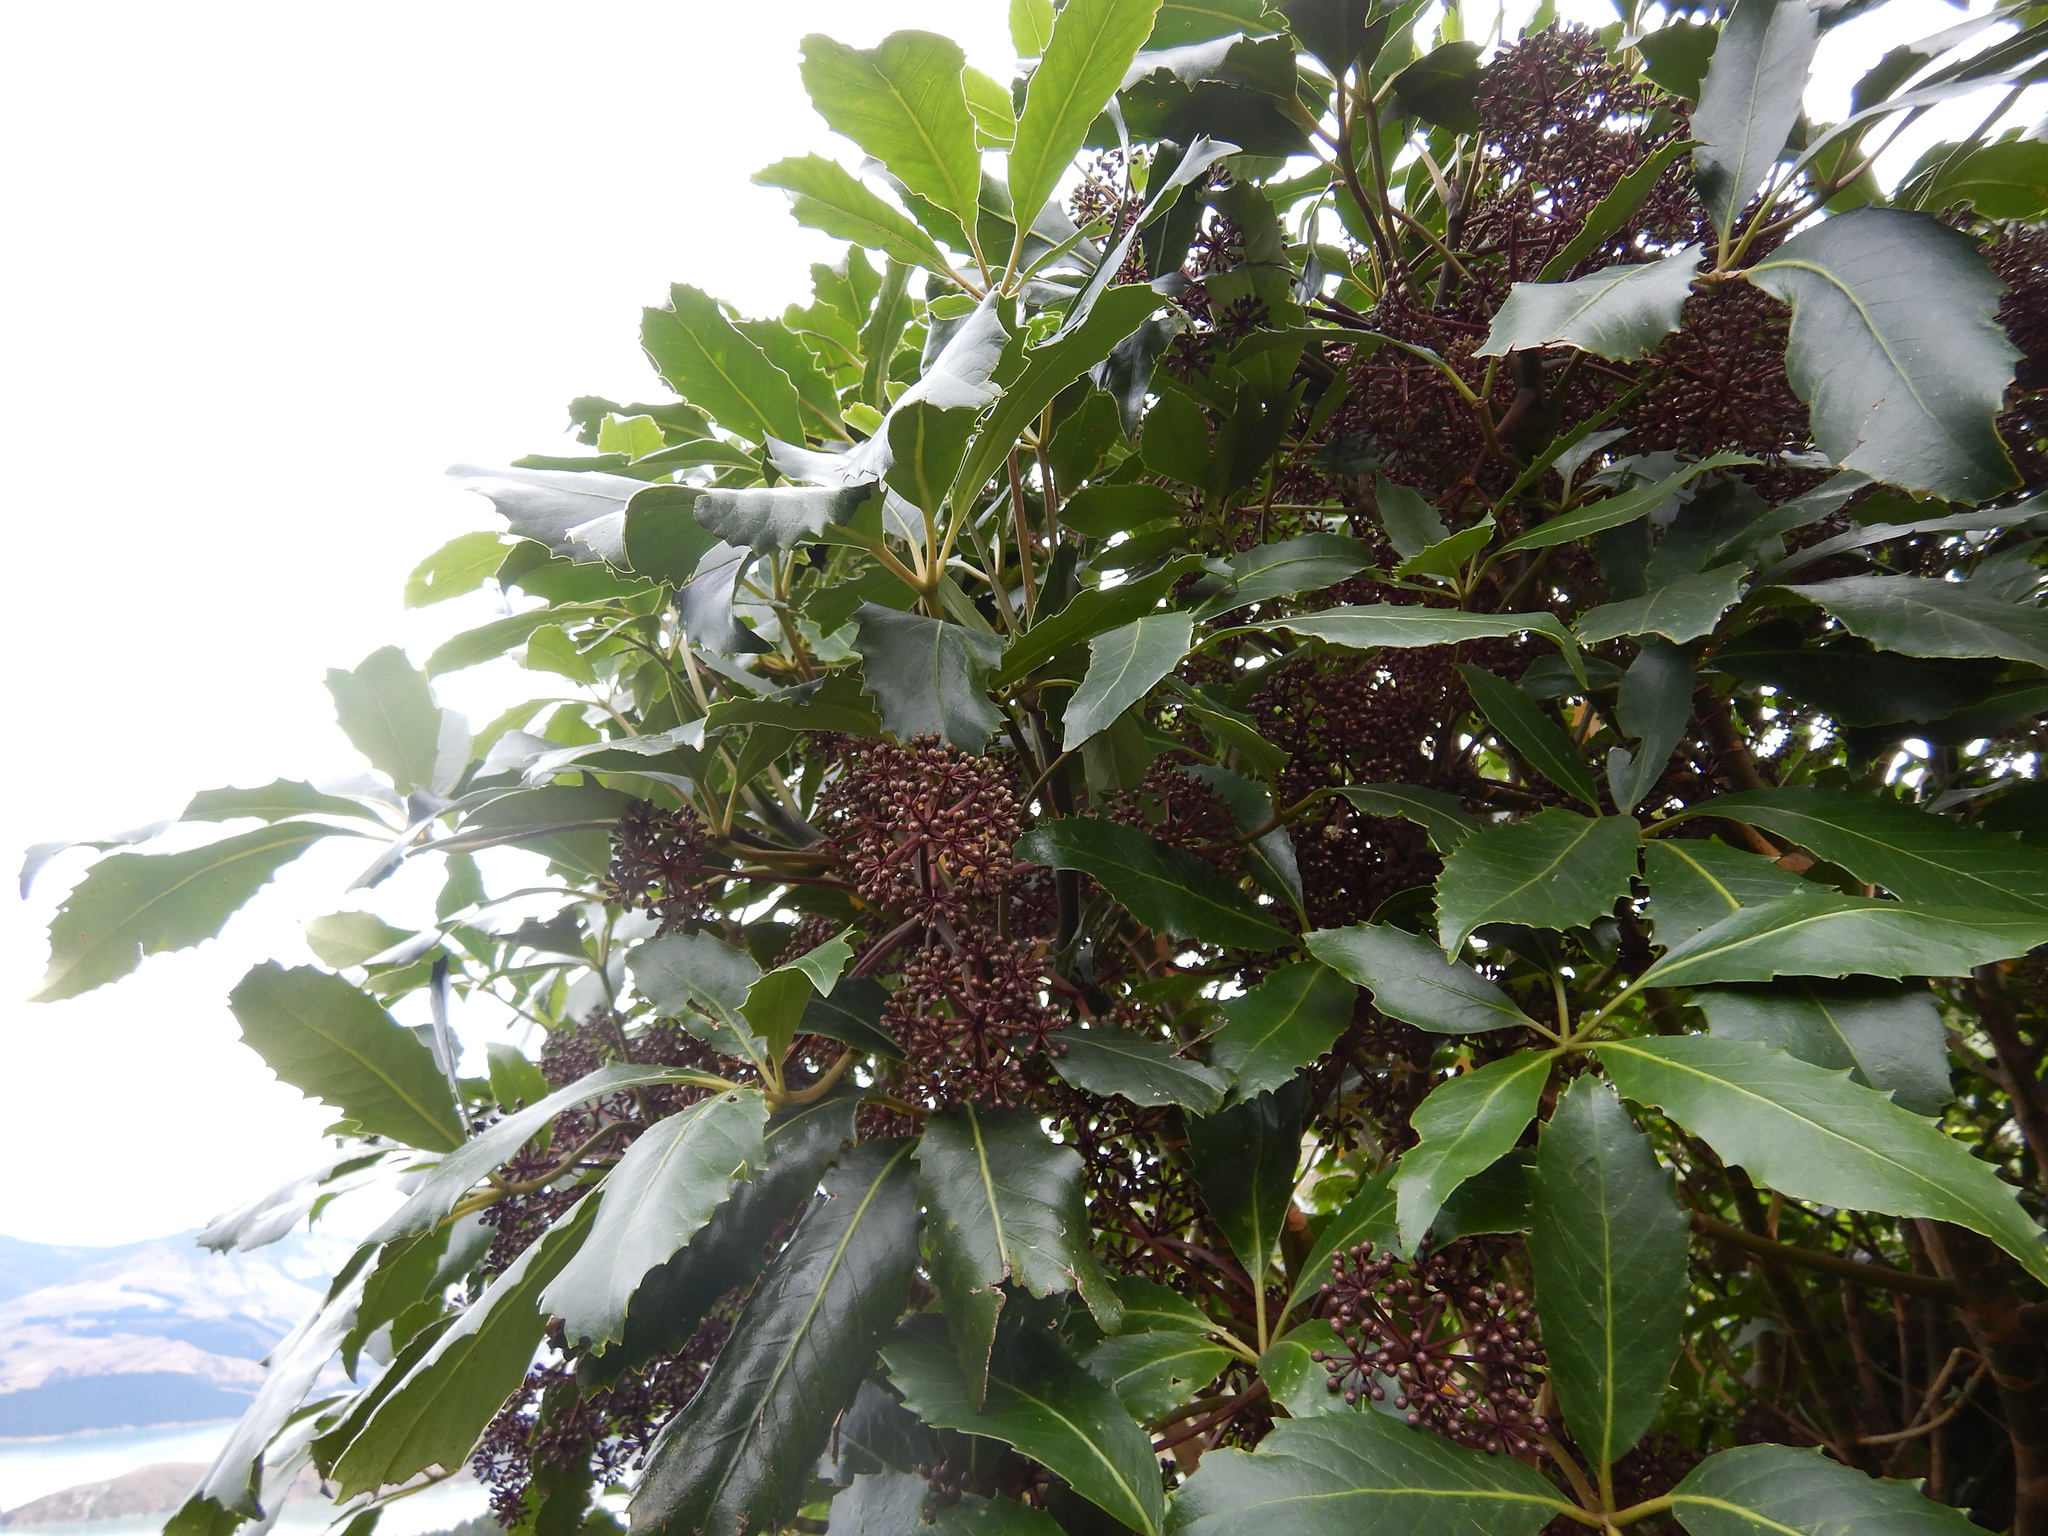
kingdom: Plantae
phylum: Tracheophyta
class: Magnoliopsida
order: Apiales
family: Araliaceae
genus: Neopanax
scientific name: Neopanax arboreus
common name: Five-fingers
